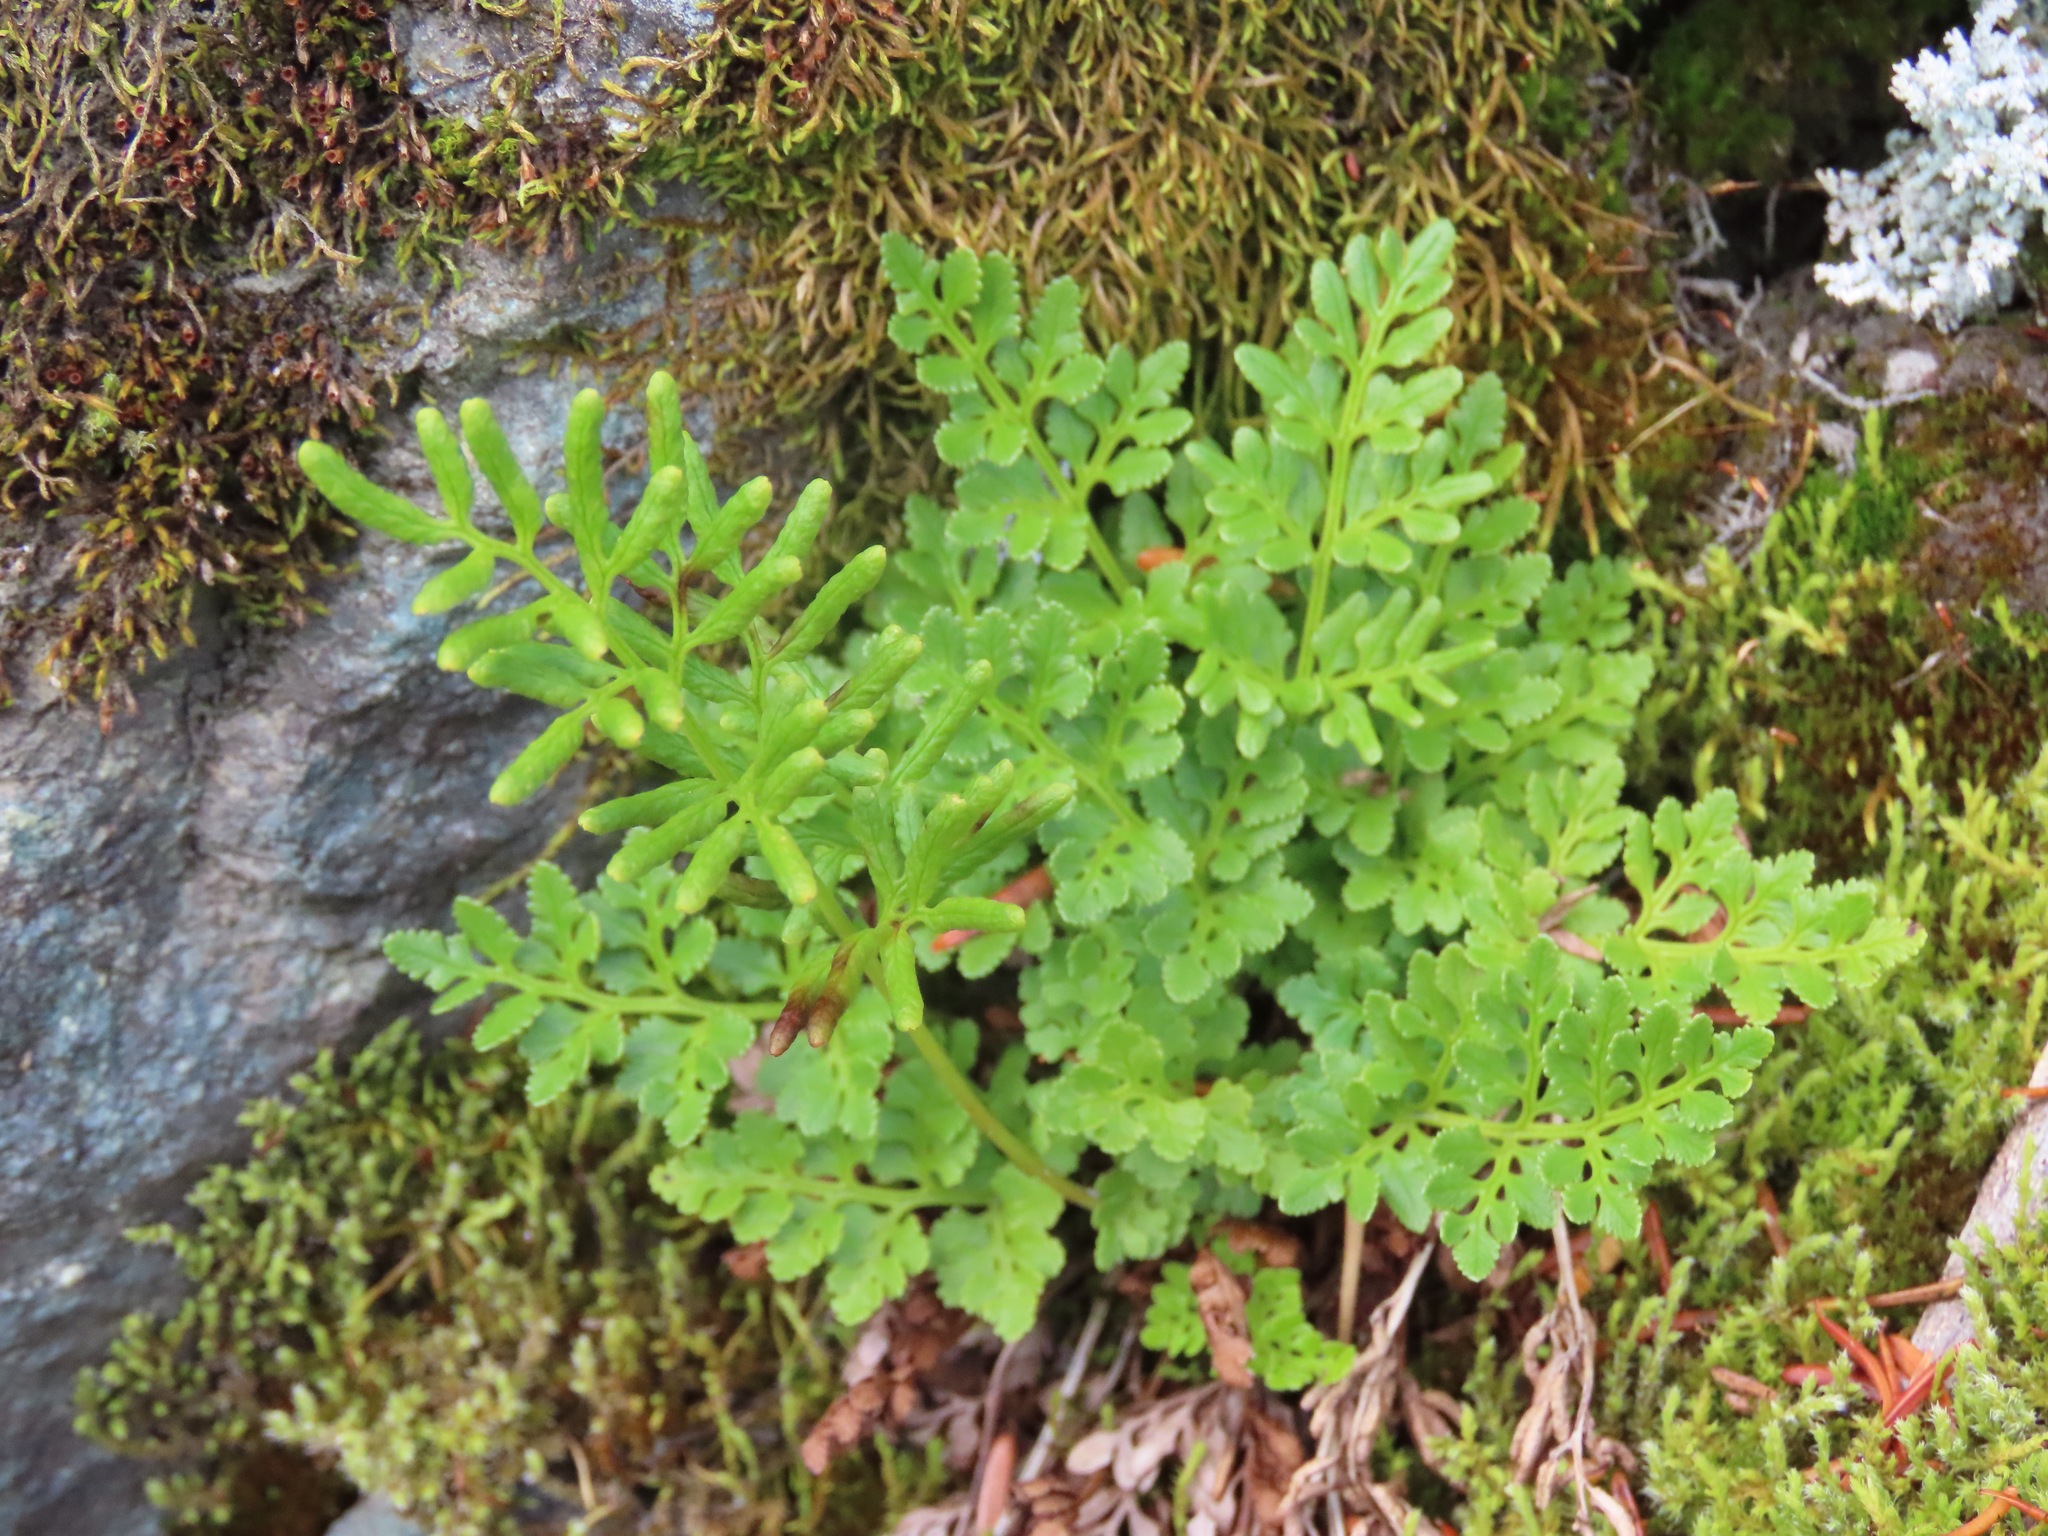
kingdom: Plantae
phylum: Tracheophyta
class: Polypodiopsida
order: Polypodiales
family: Pteridaceae
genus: Cryptogramma
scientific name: Cryptogramma acrostichoides
